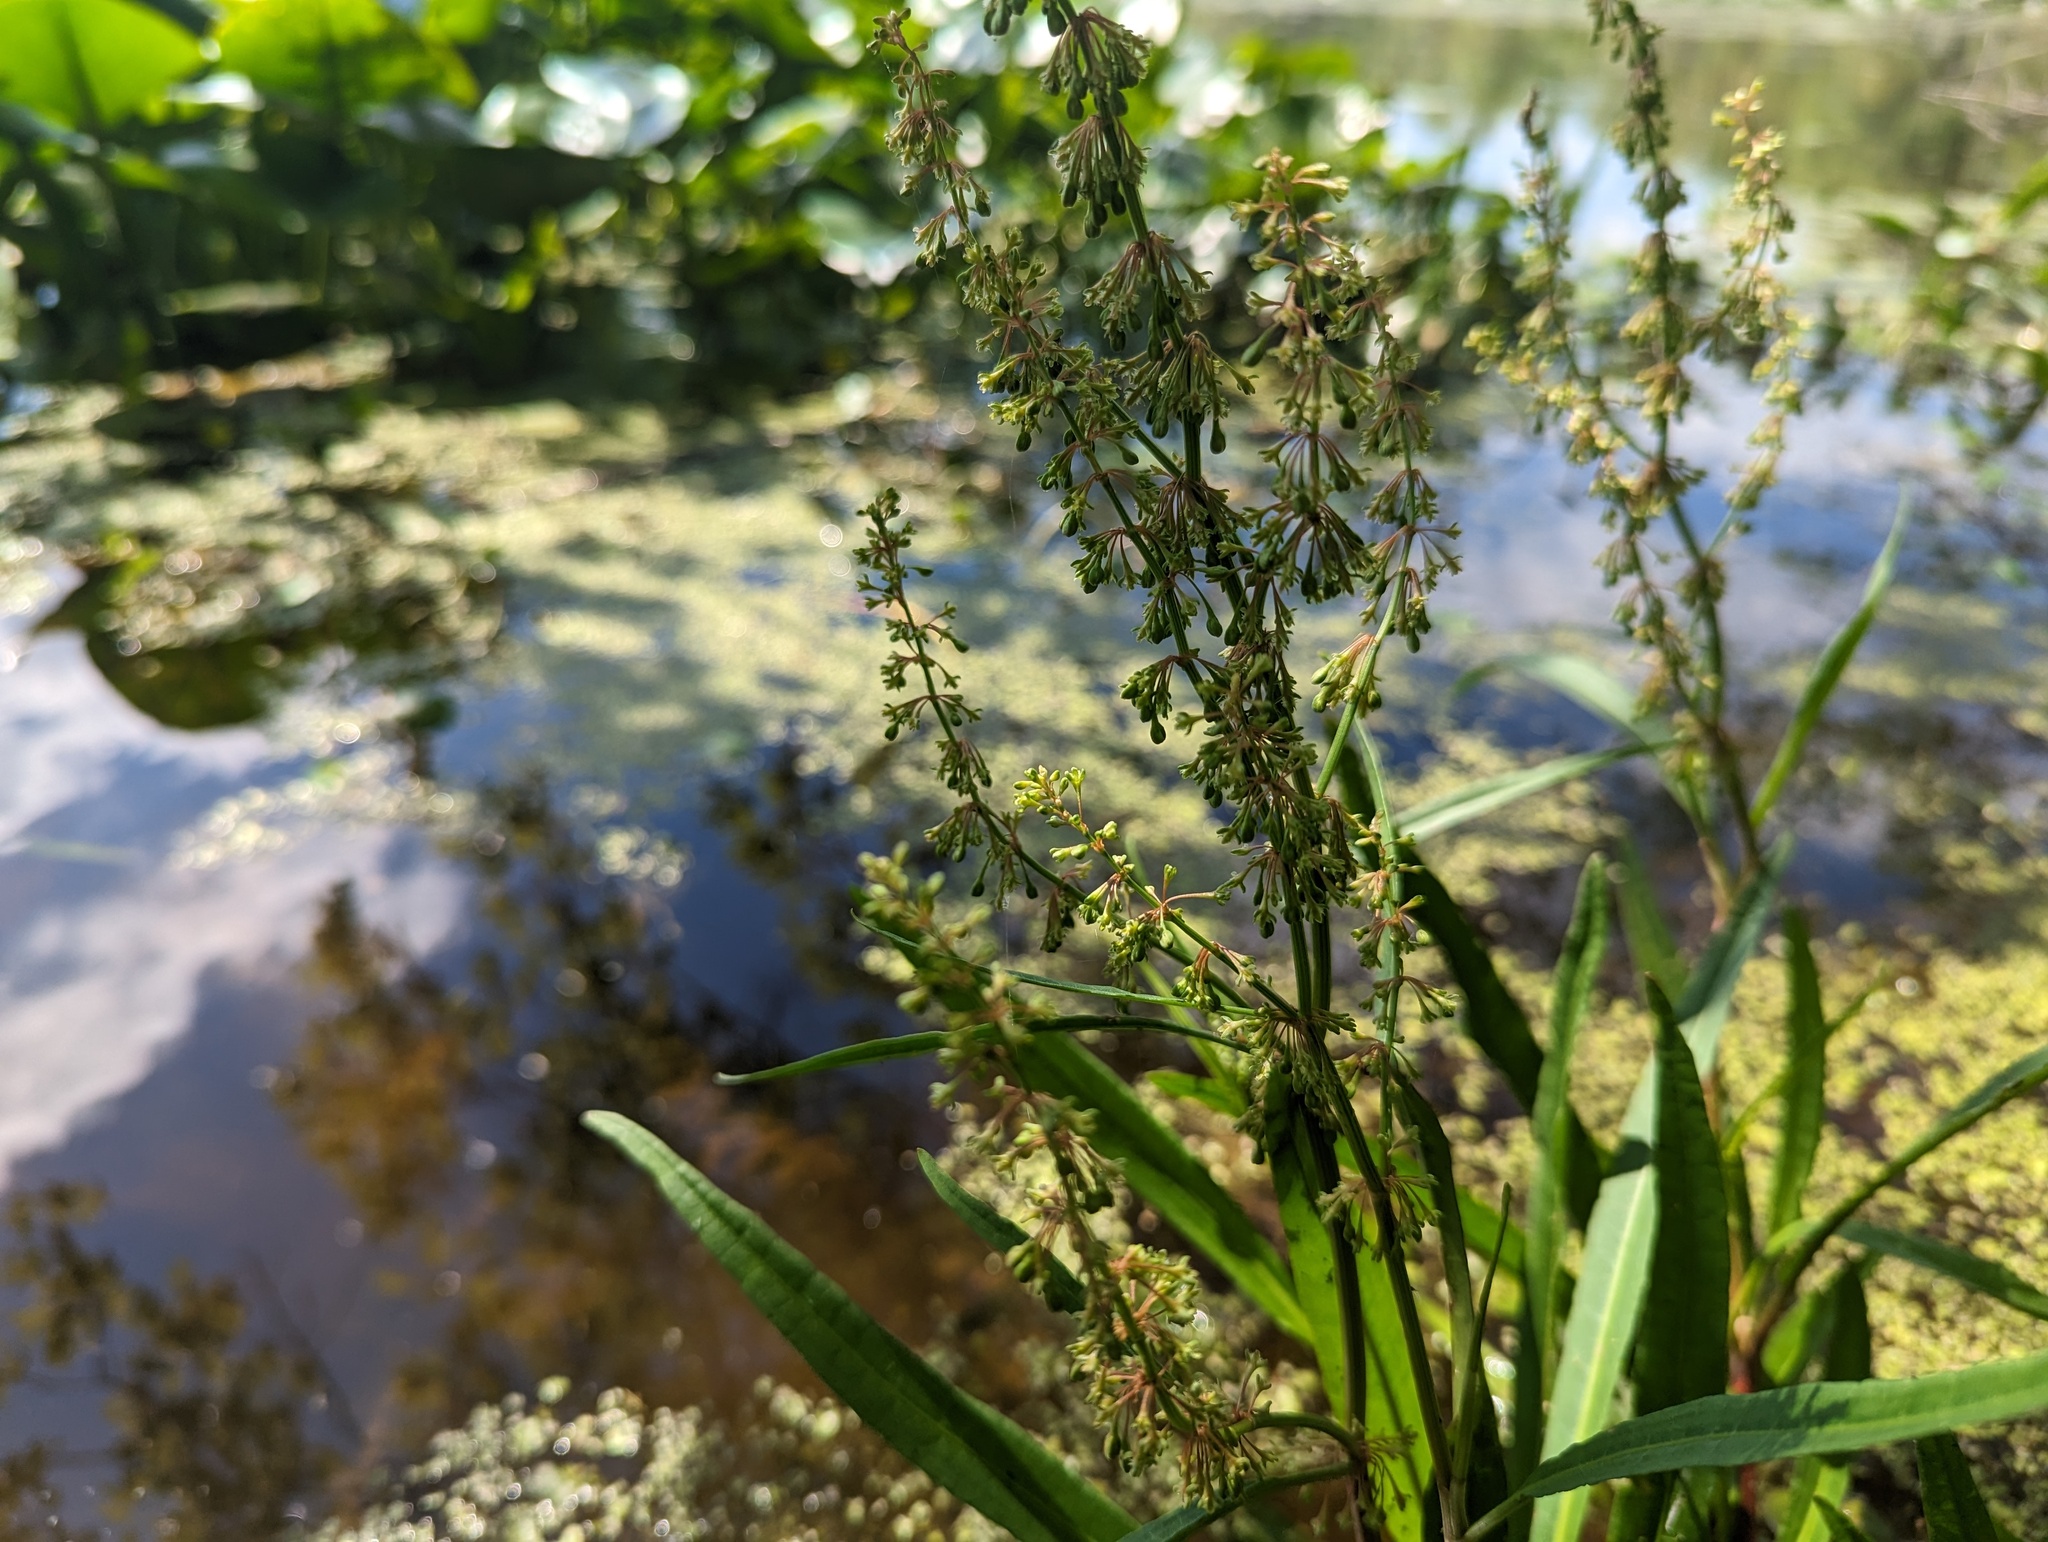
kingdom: Plantae
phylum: Tracheophyta
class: Magnoliopsida
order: Caryophyllales
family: Polygonaceae
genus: Rumex
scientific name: Rumex verticillatus
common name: Swamp dock
